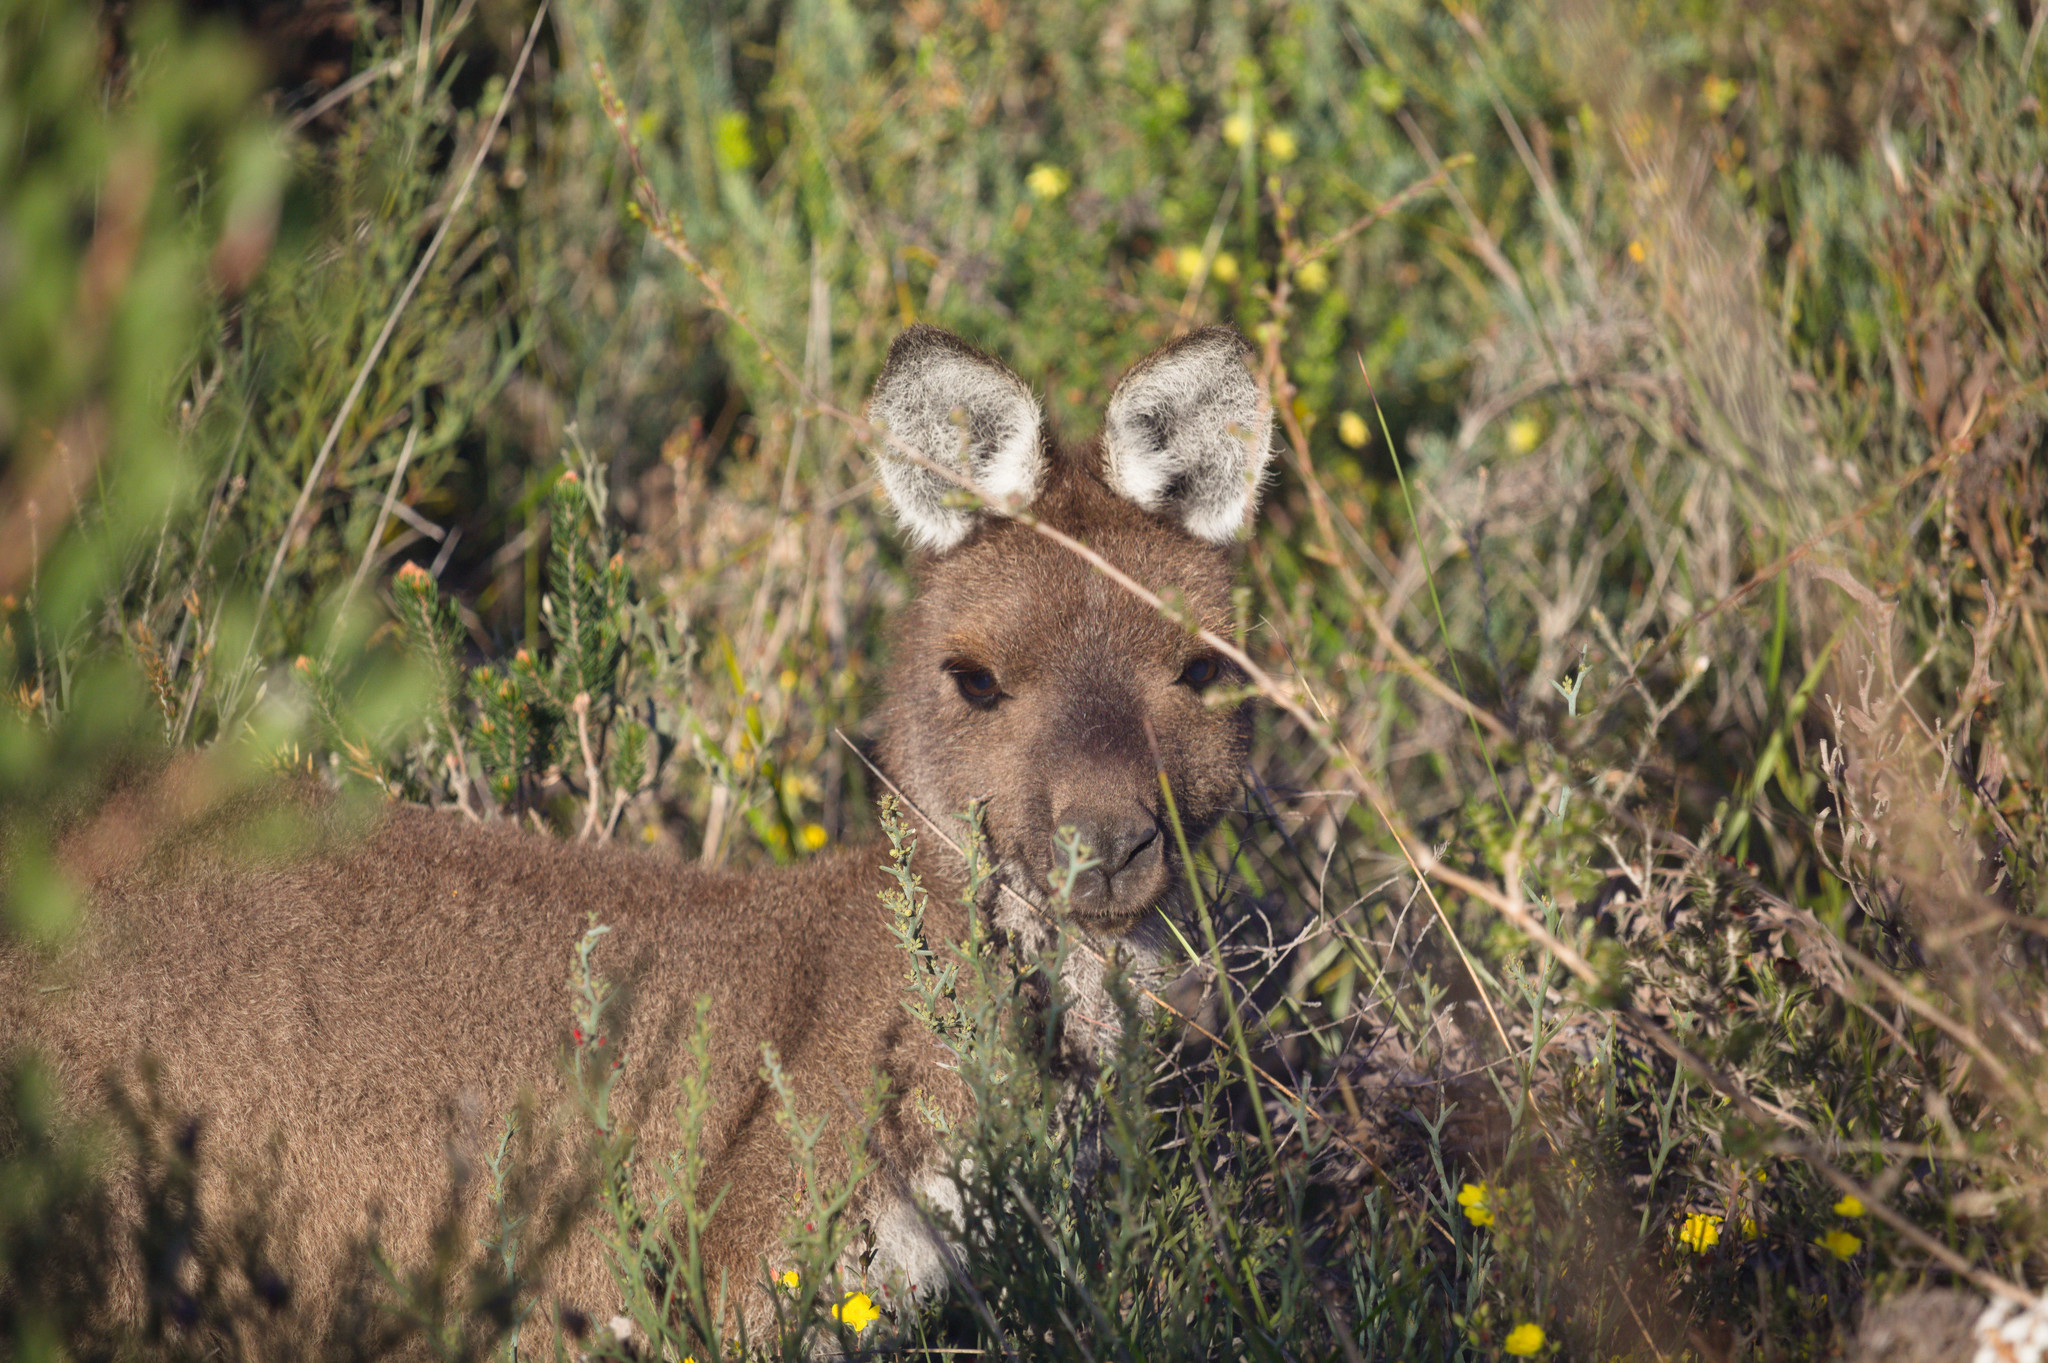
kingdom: Animalia
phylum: Chordata
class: Mammalia
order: Diprotodontia
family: Macropodidae
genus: Macropus
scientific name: Macropus fuliginosus
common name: Western grey kangaroo
